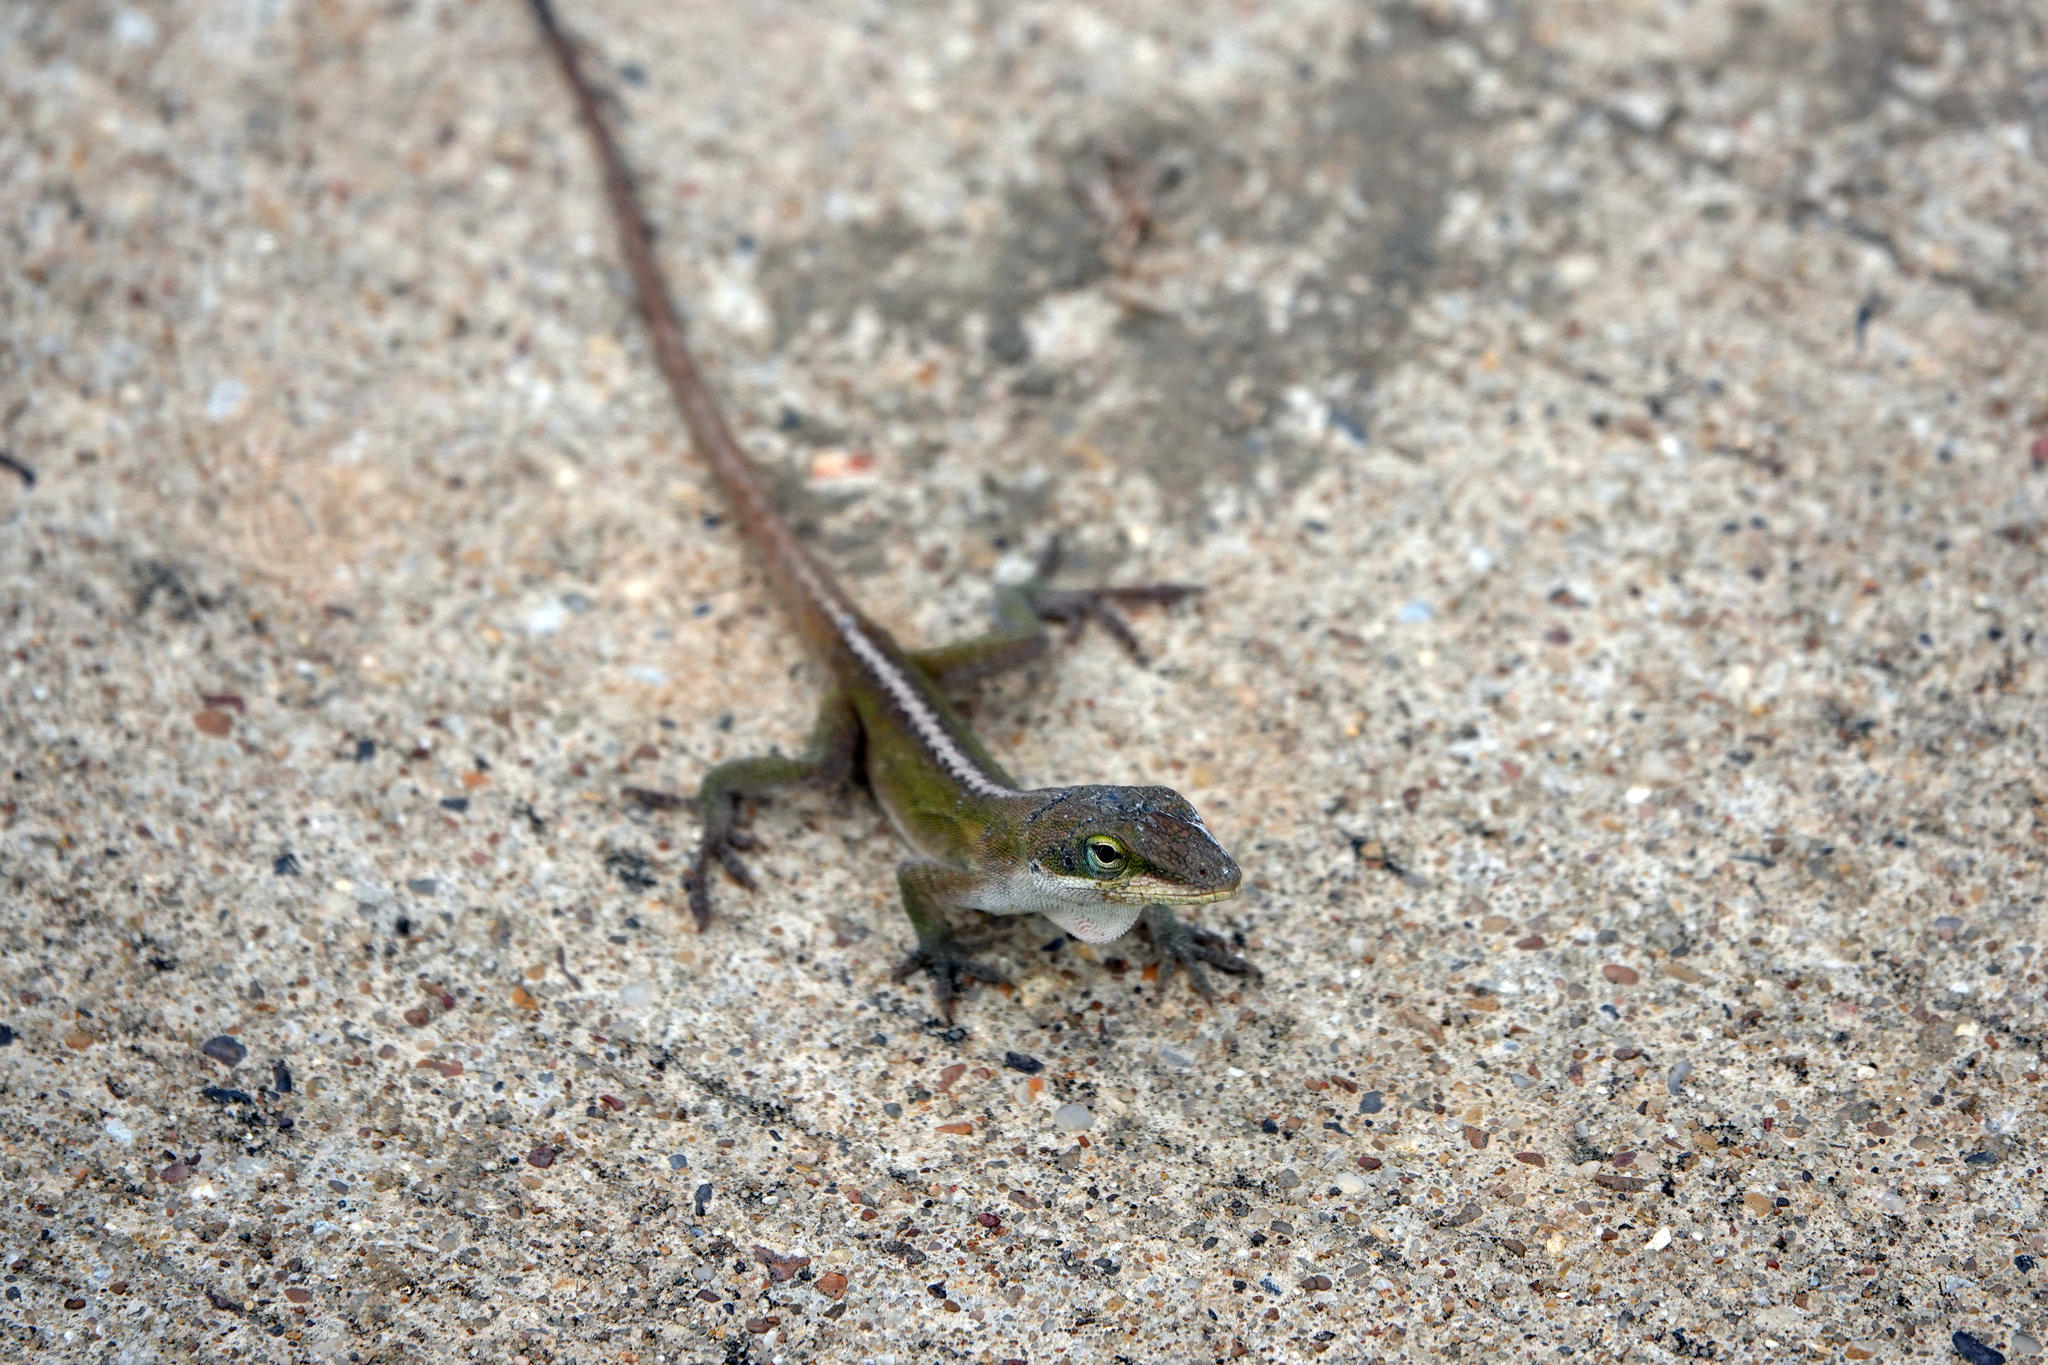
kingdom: Animalia
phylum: Chordata
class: Squamata
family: Dactyloidae
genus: Anolis
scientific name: Anolis carolinensis
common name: Green anole
